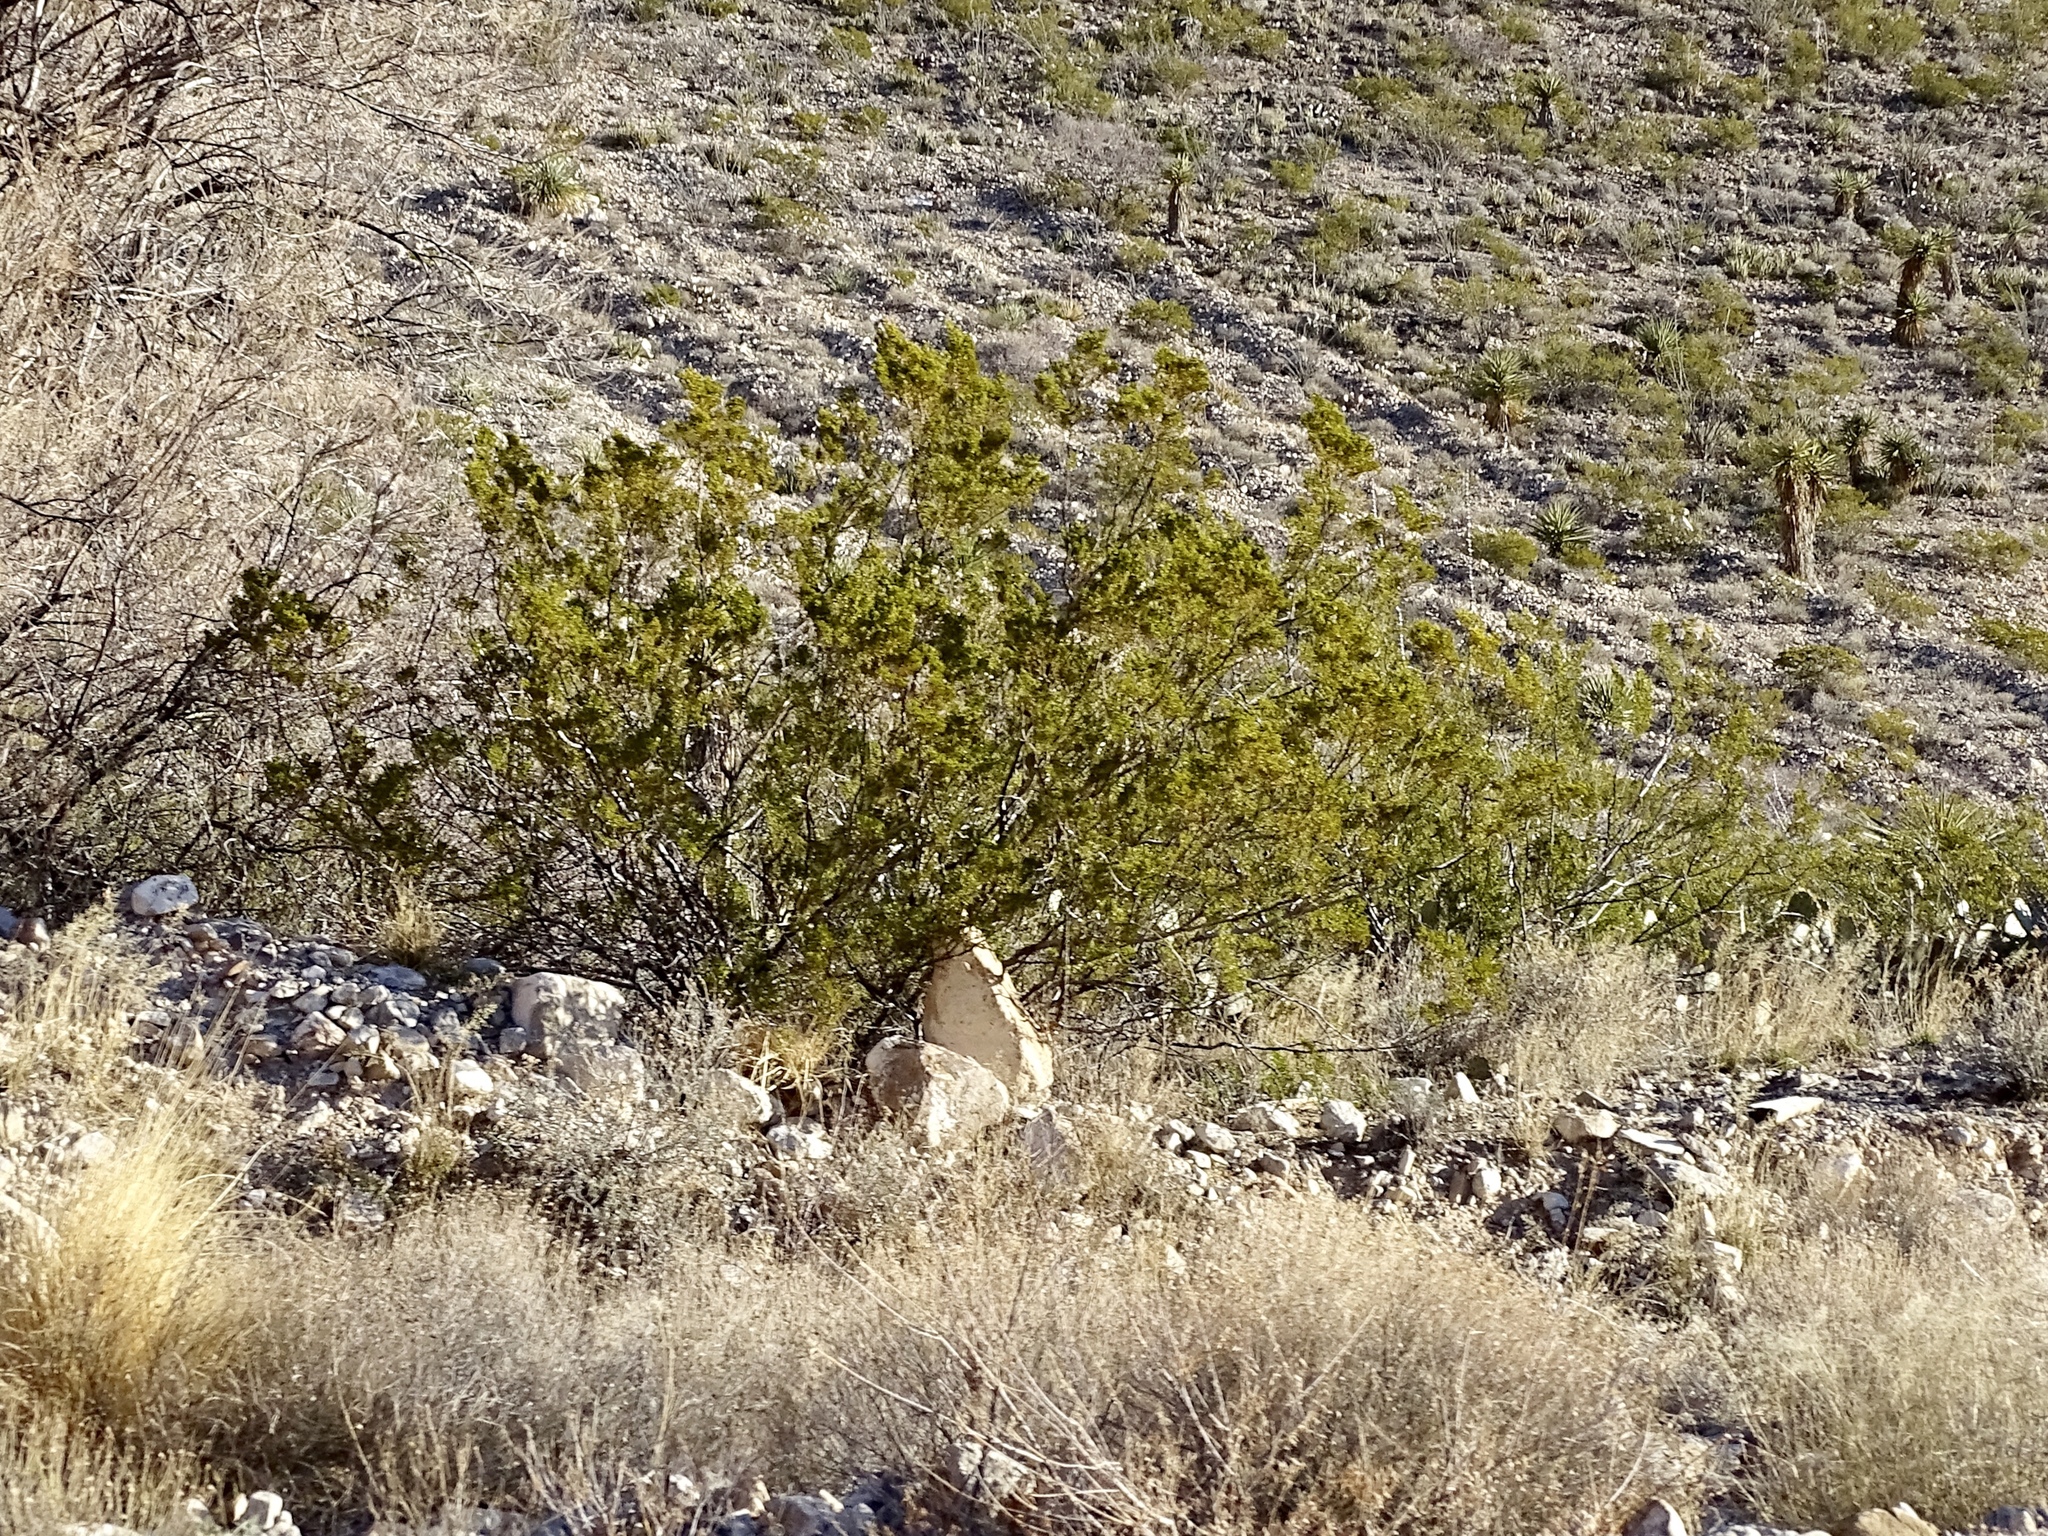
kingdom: Plantae
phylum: Tracheophyta
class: Magnoliopsida
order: Zygophyllales
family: Zygophyllaceae
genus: Larrea
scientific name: Larrea tridentata
